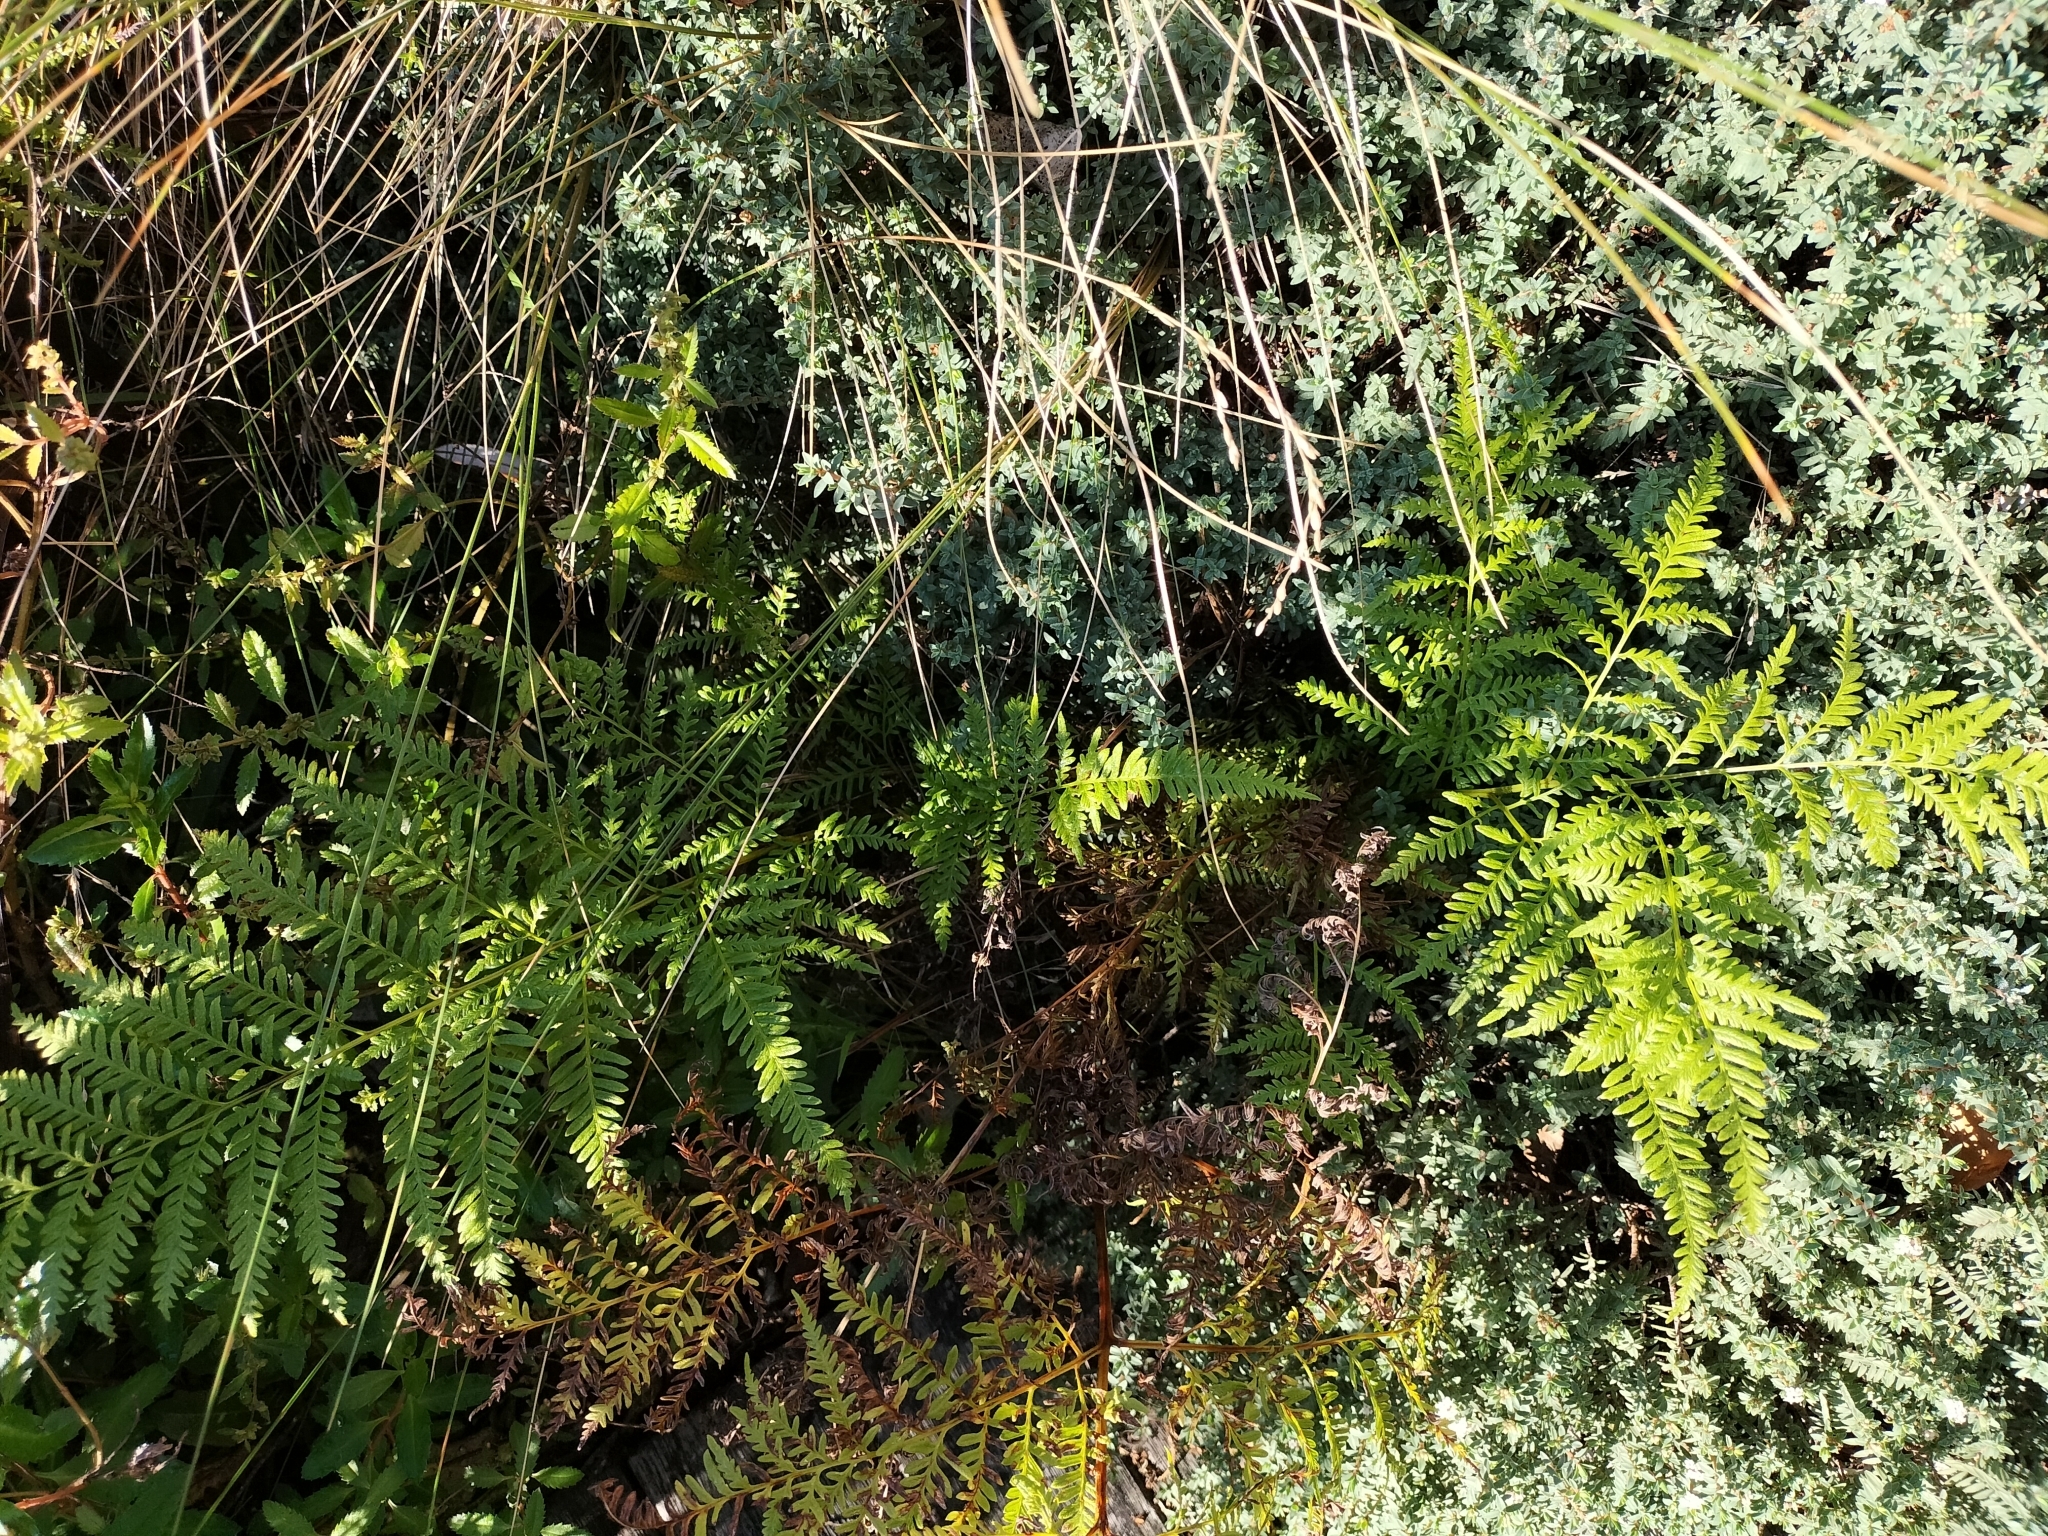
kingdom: Plantae
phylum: Tracheophyta
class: Polypodiopsida
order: Polypodiales
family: Pteridaceae
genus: Pteris
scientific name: Pteris tremula
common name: Australian brake
